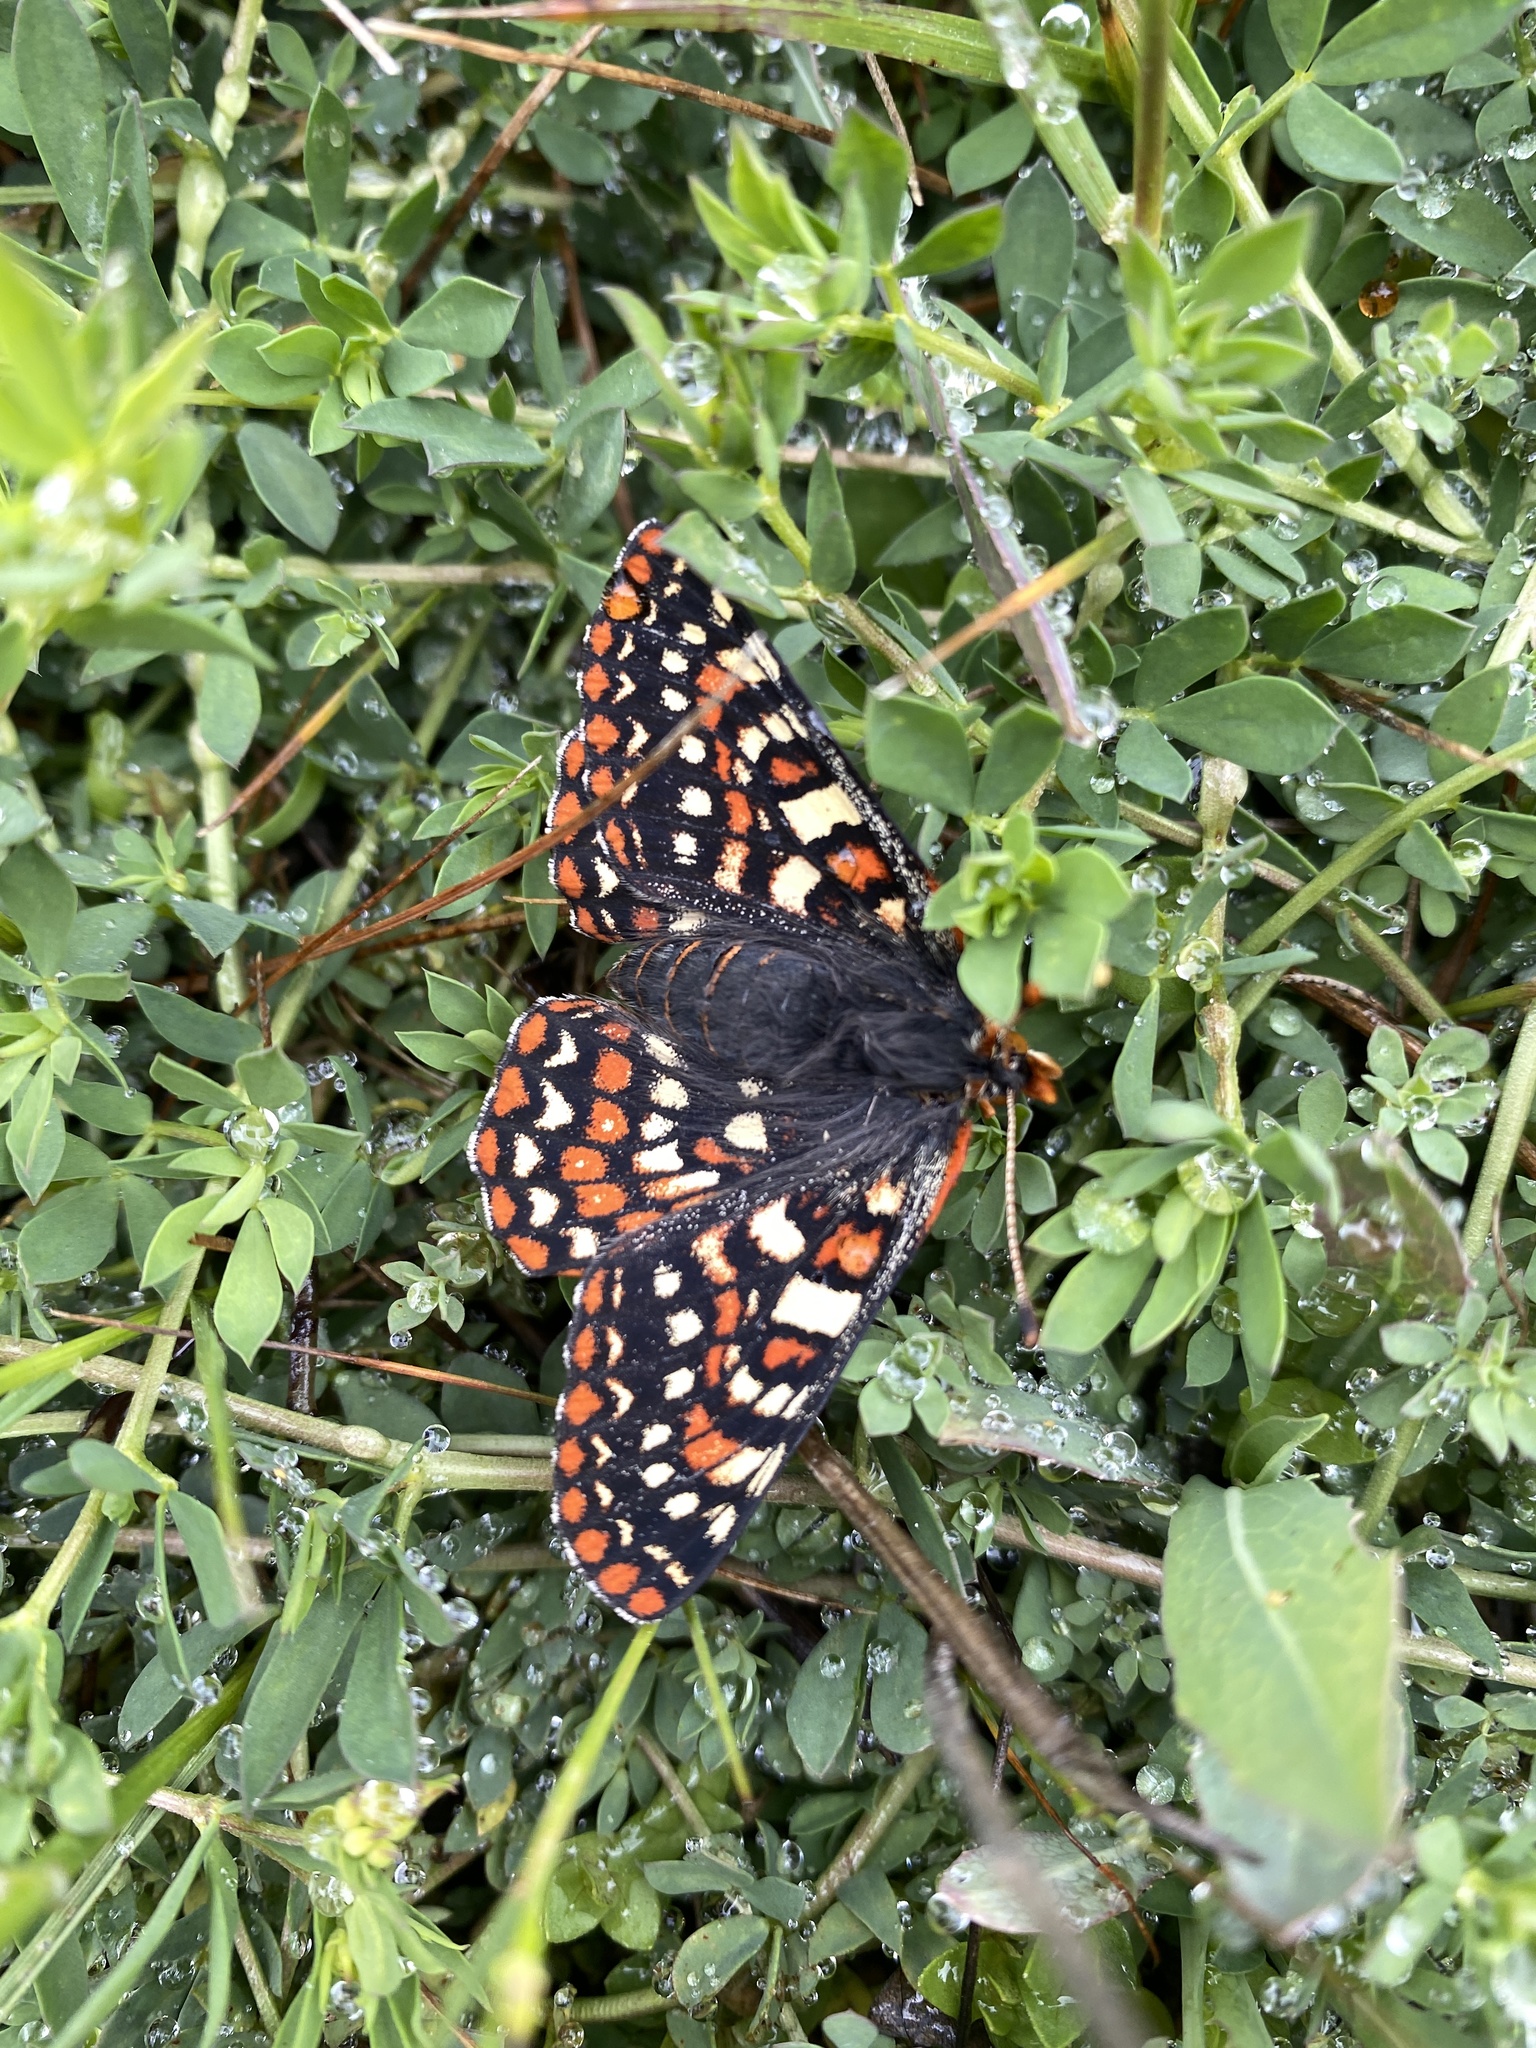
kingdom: Animalia
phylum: Arthropoda
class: Insecta
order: Lepidoptera
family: Nymphalidae
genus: Occidryas
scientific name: Occidryas editha
